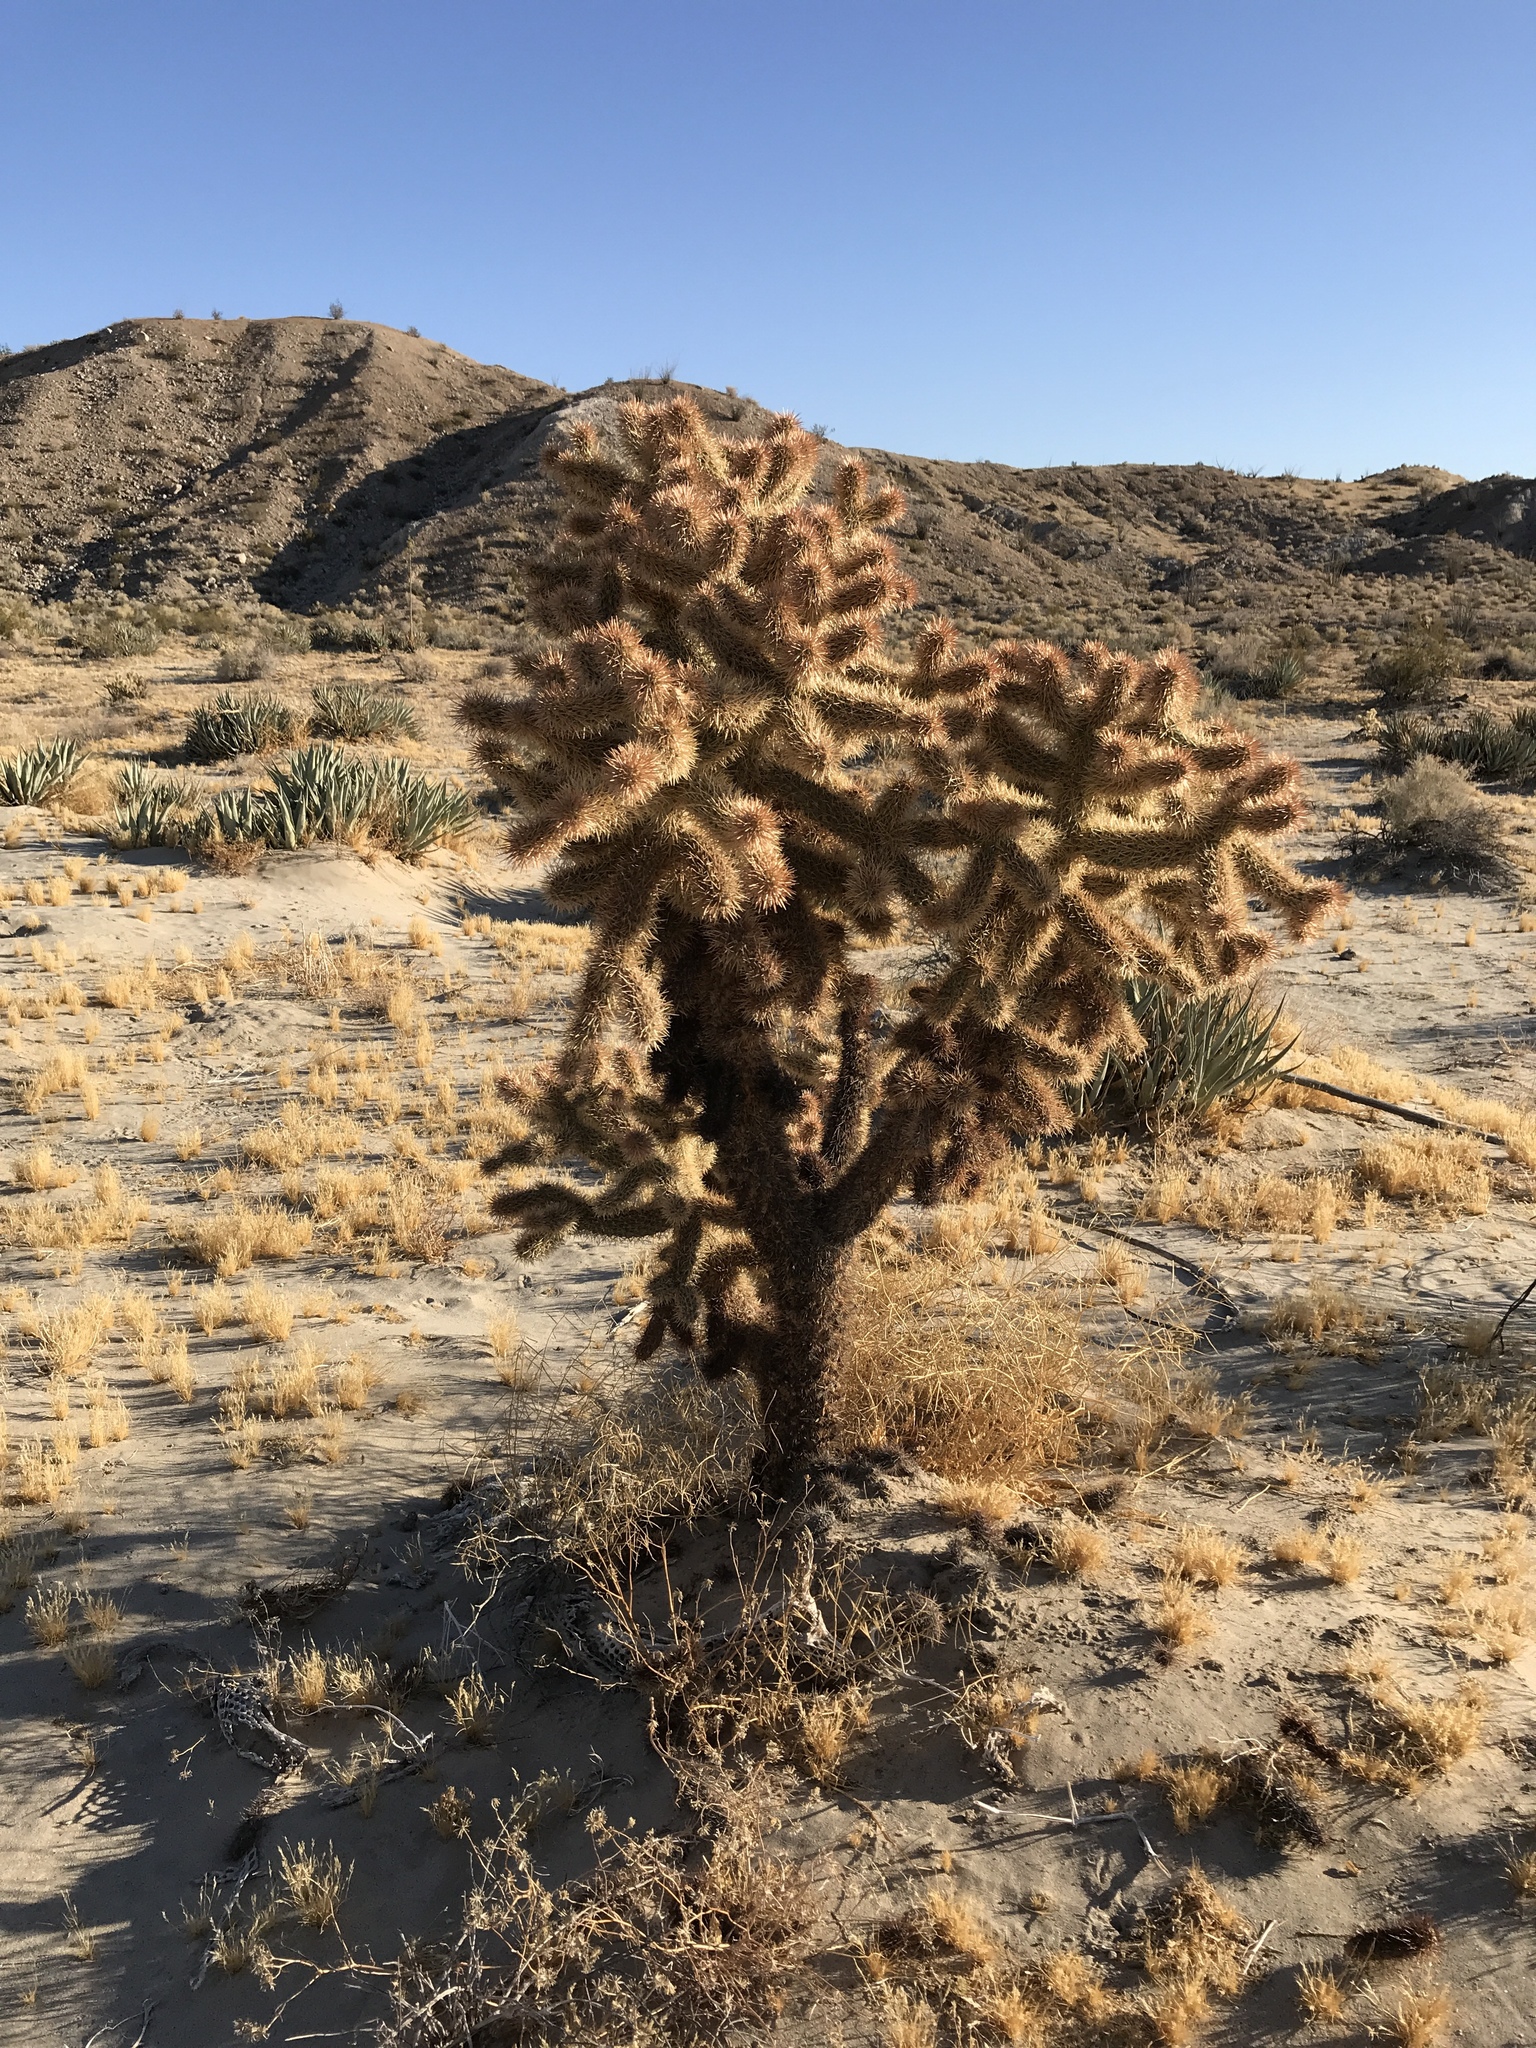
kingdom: Plantae
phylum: Tracheophyta
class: Magnoliopsida
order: Caryophyllales
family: Cactaceae
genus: Cylindropuntia
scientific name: Cylindropuntia fosbergii
